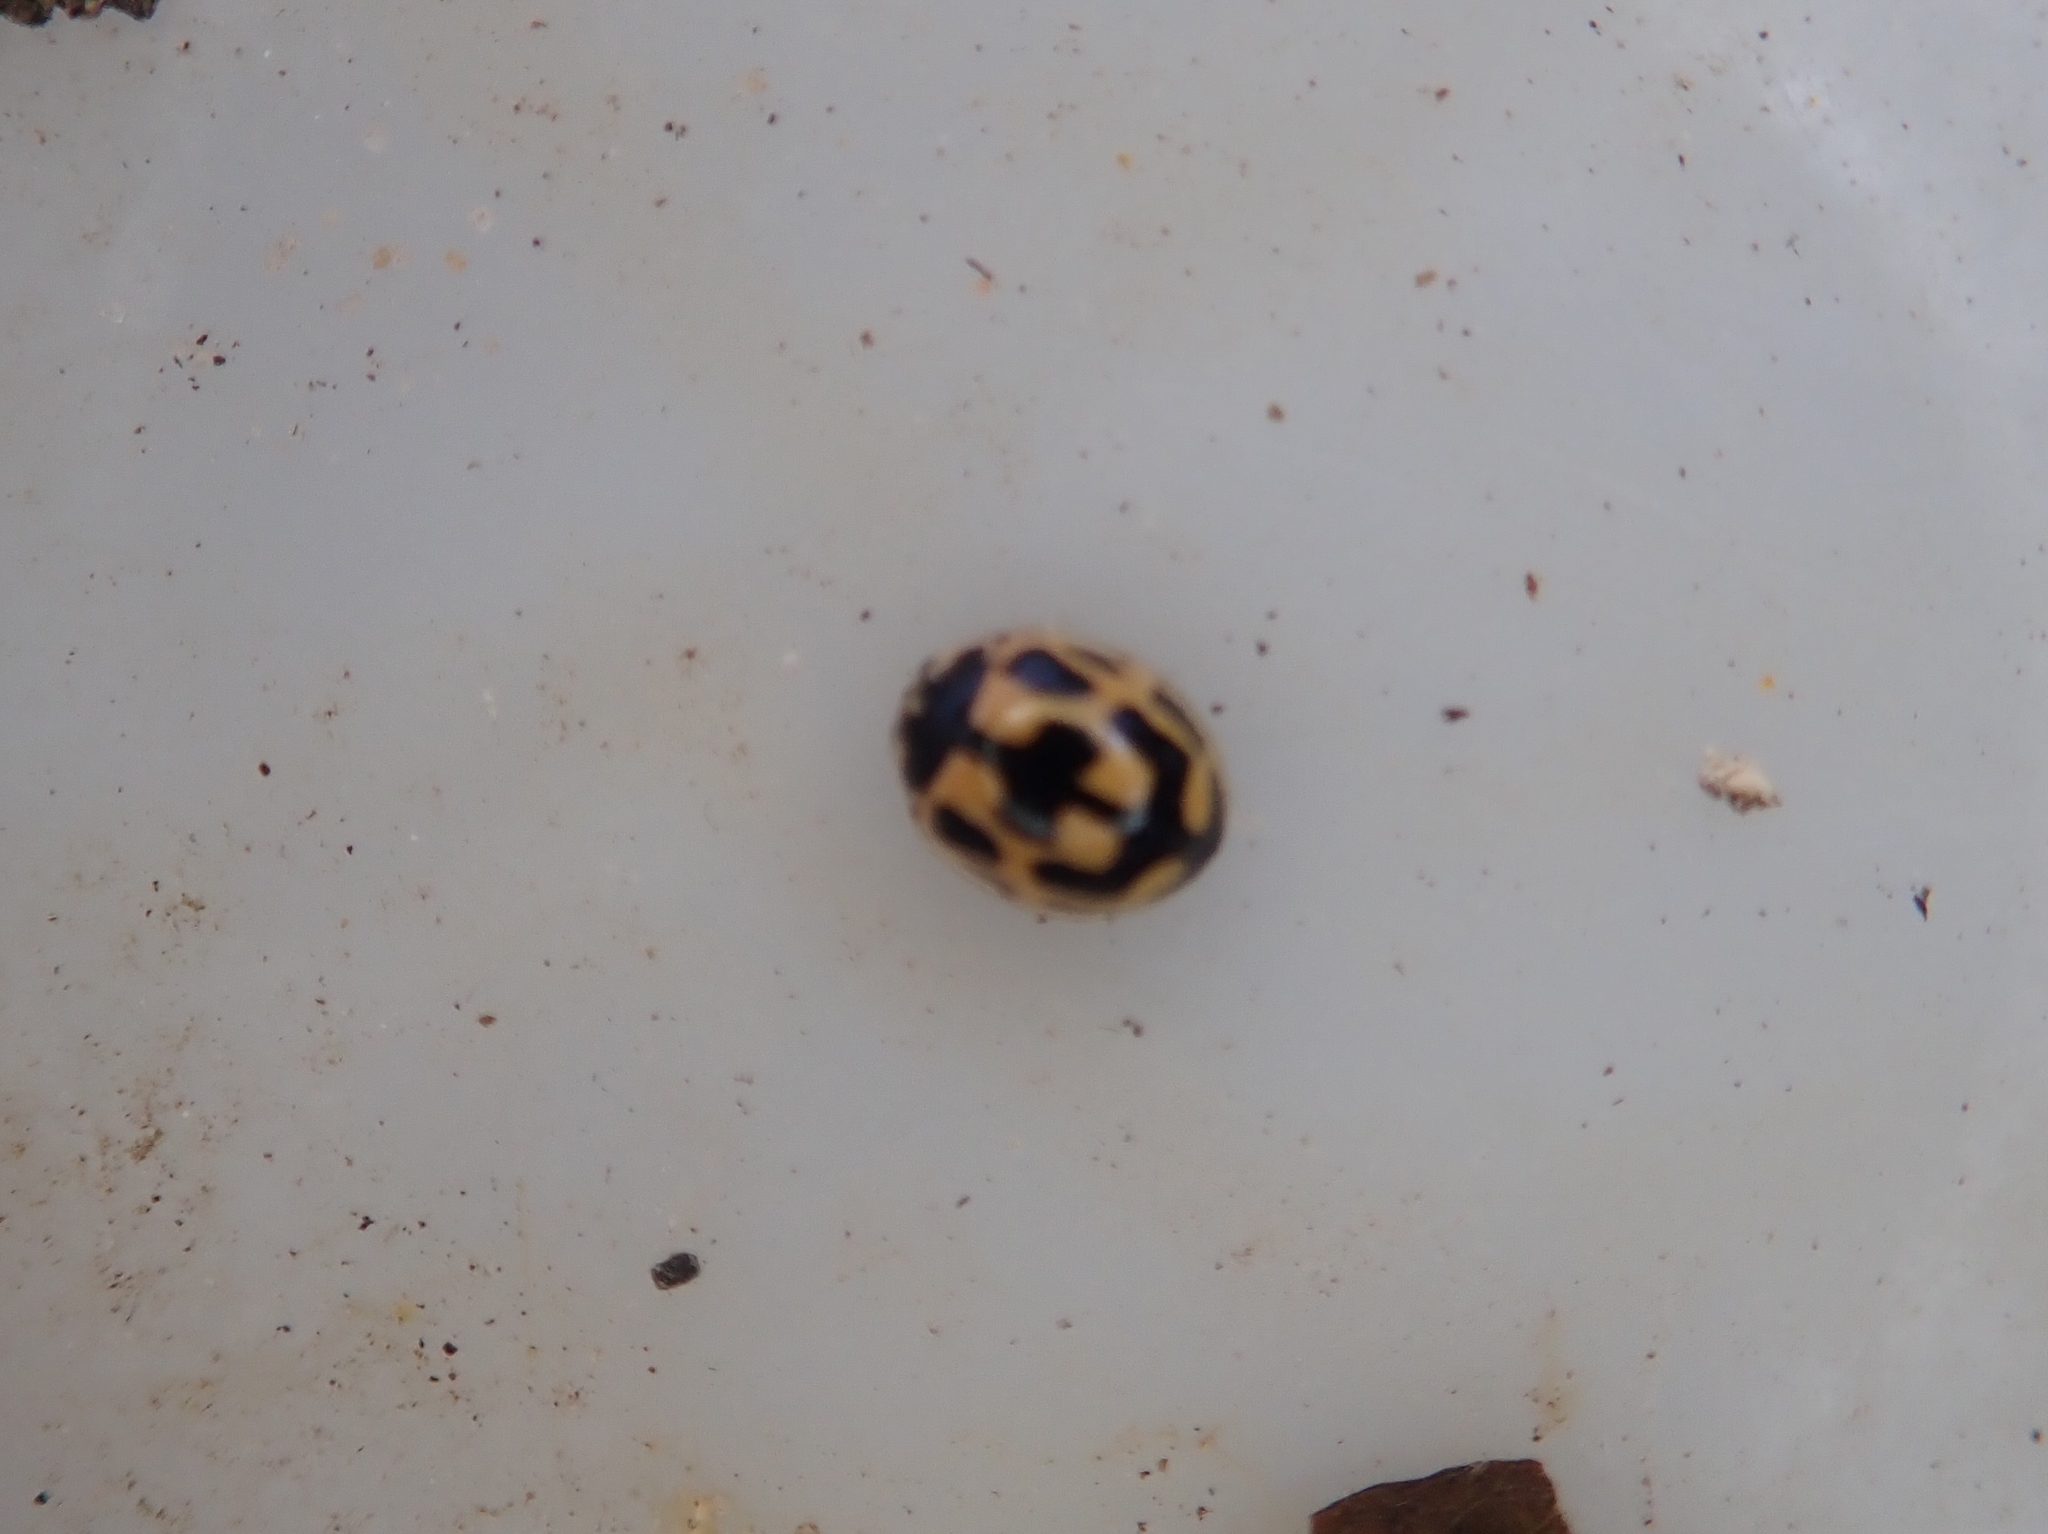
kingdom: Animalia
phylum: Arthropoda
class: Insecta
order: Coleoptera
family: Coccinellidae
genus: Propylaea
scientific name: Propylaea quatuordecimpunctata
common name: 14-spotted ladybird beetle
